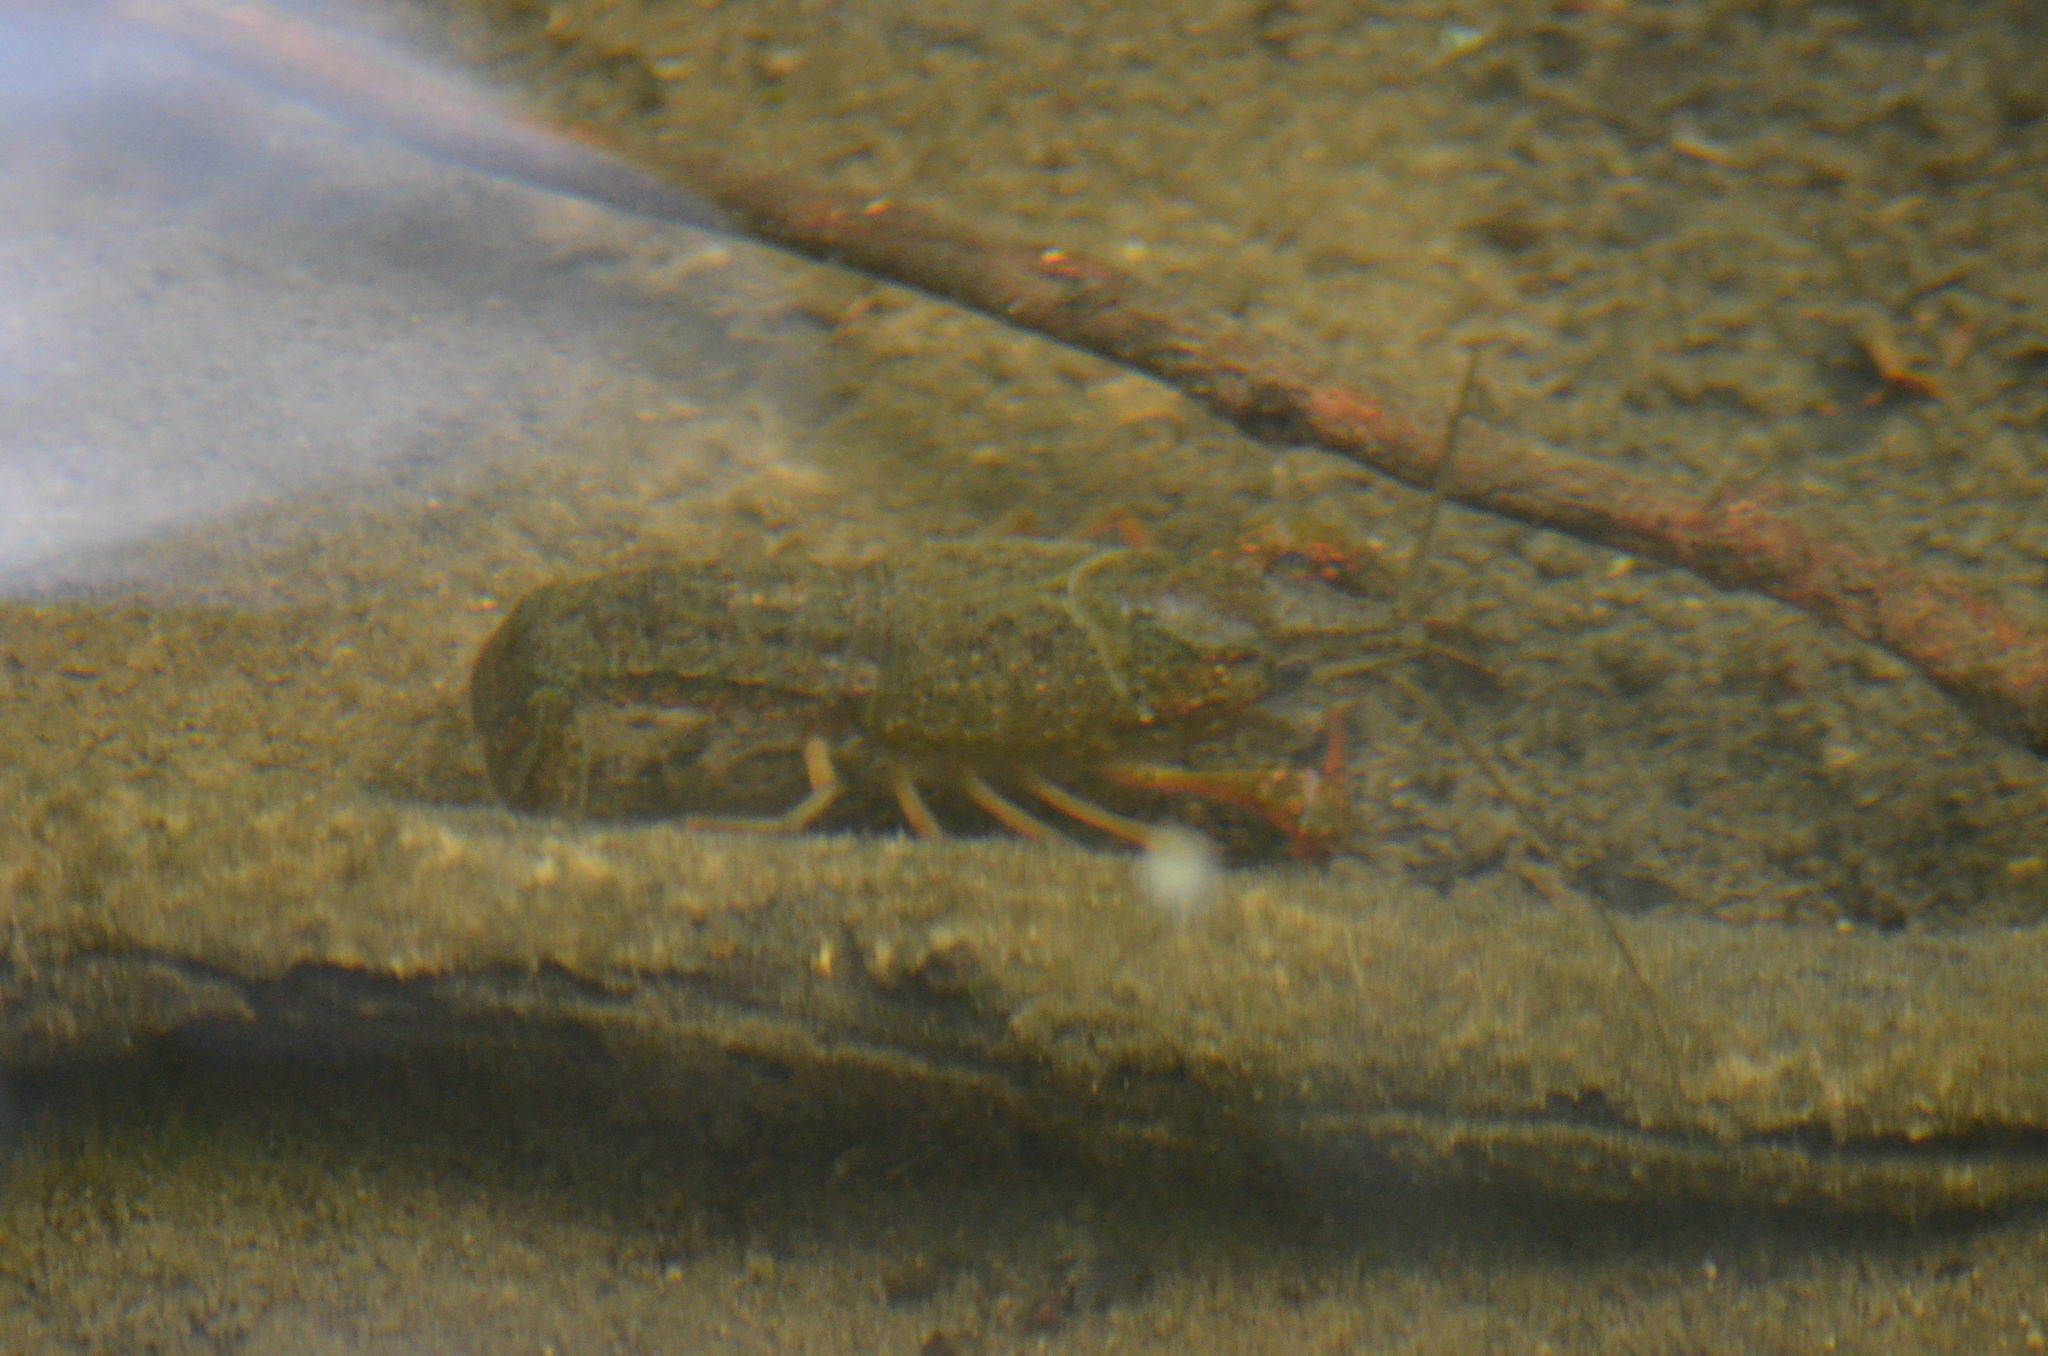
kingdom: Animalia
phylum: Arthropoda
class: Malacostraca
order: Decapoda
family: Cambaridae
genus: Procambarus
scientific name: Procambarus clarkii
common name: Red swamp crayfish
